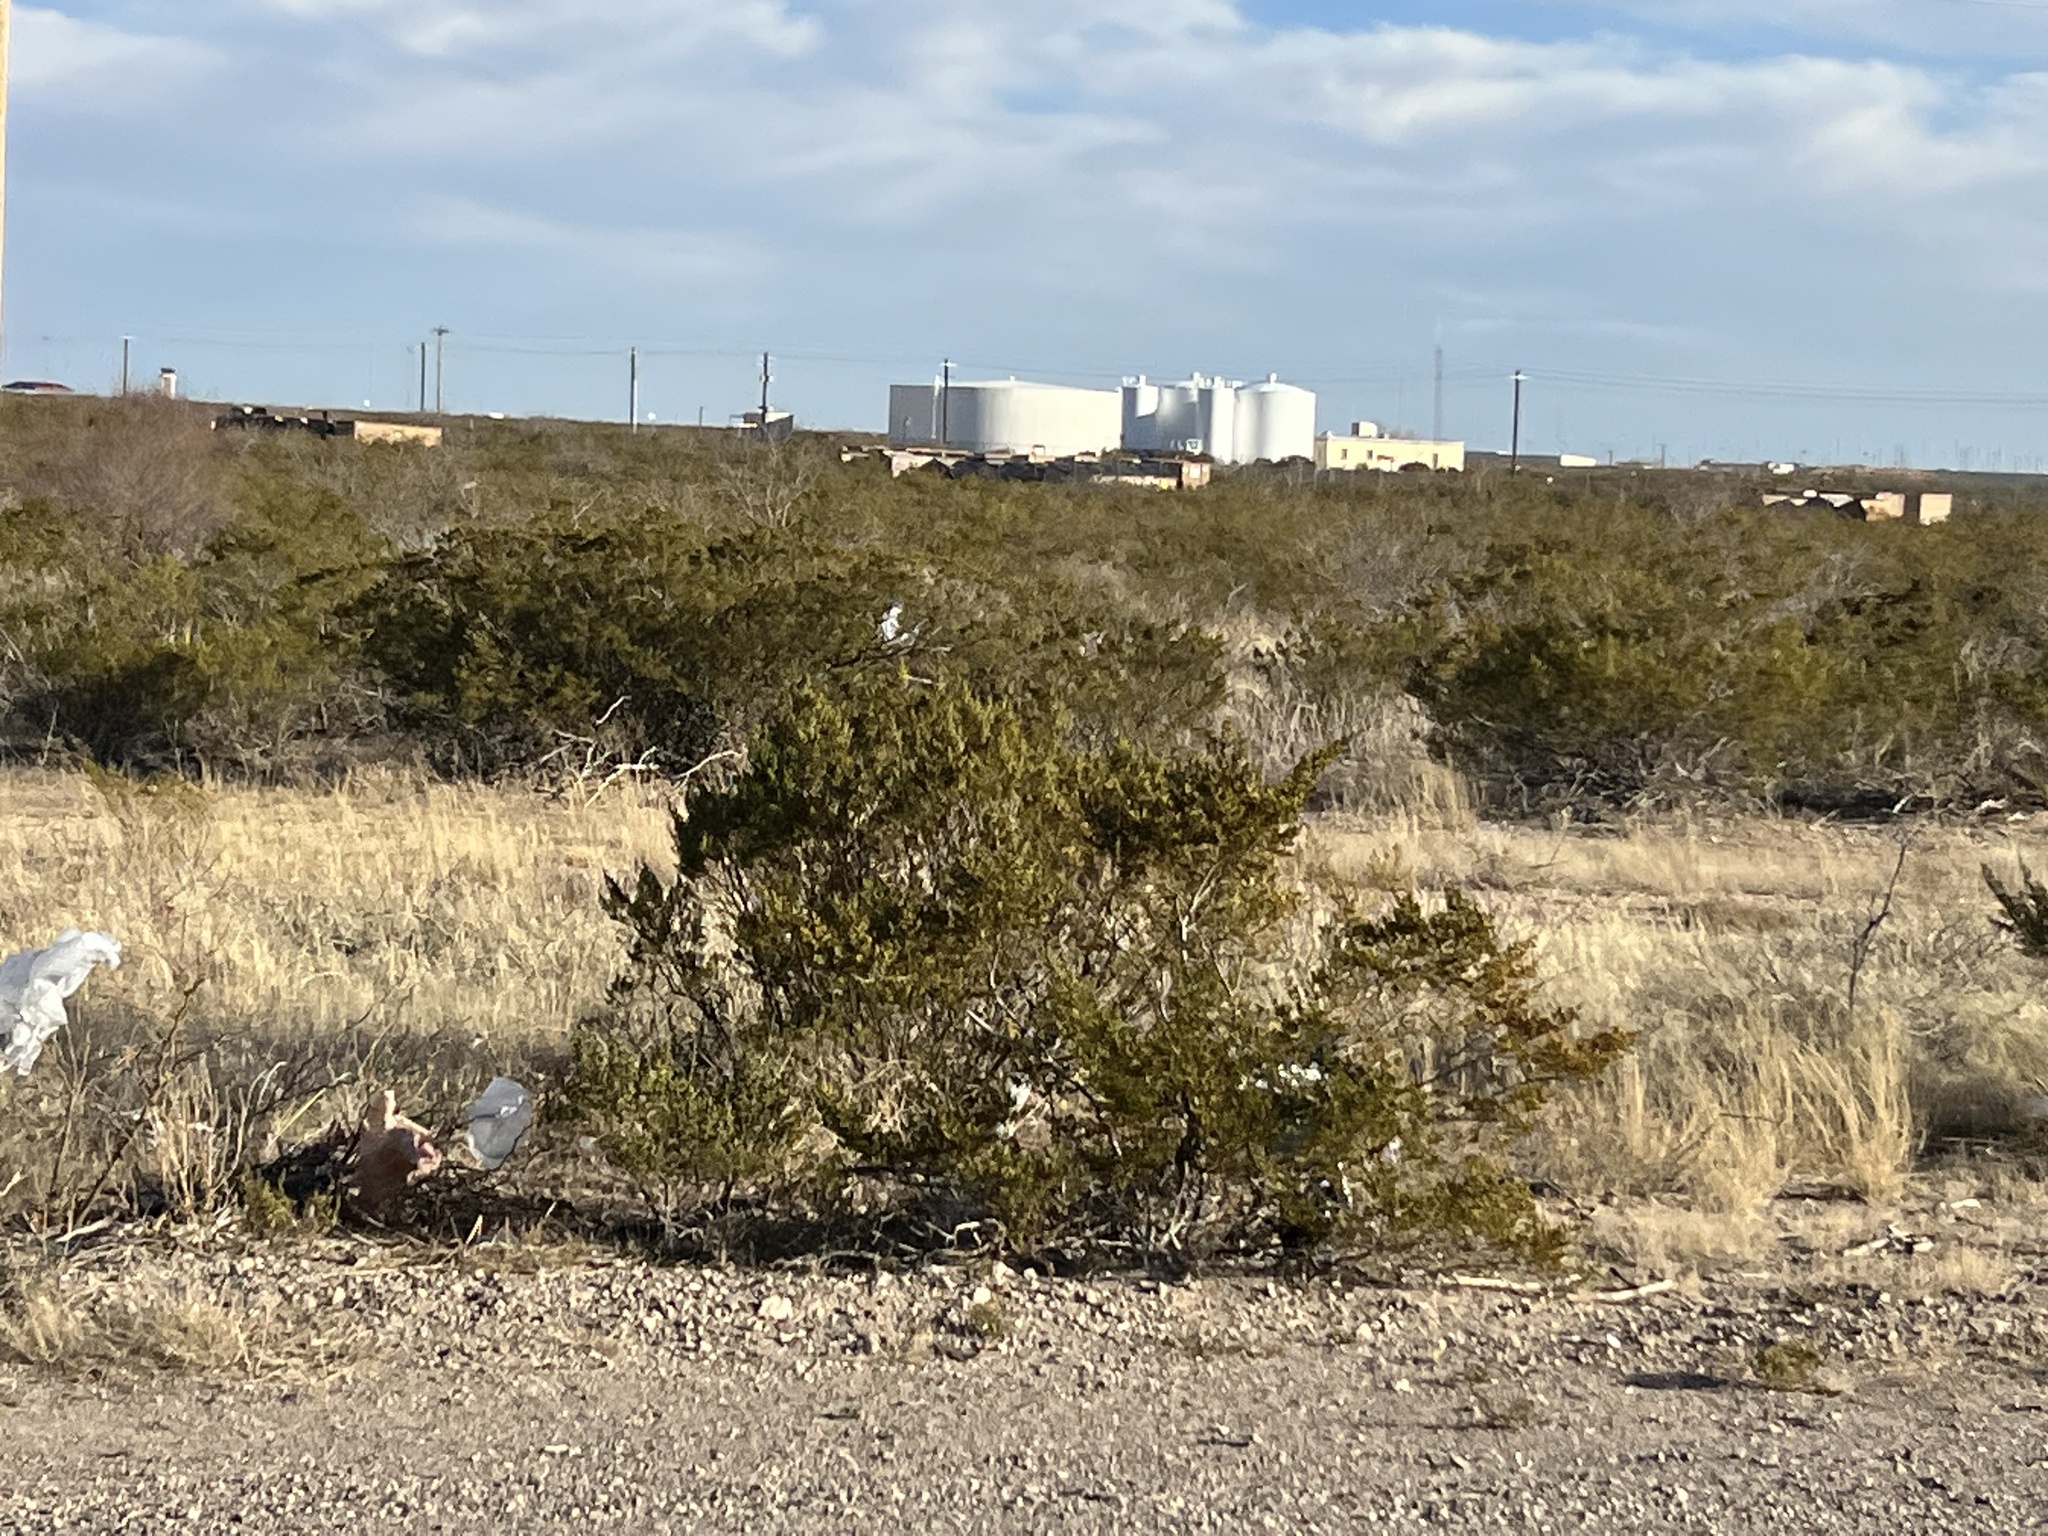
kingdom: Plantae
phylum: Tracheophyta
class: Magnoliopsida
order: Zygophyllales
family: Zygophyllaceae
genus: Larrea
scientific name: Larrea tridentata
